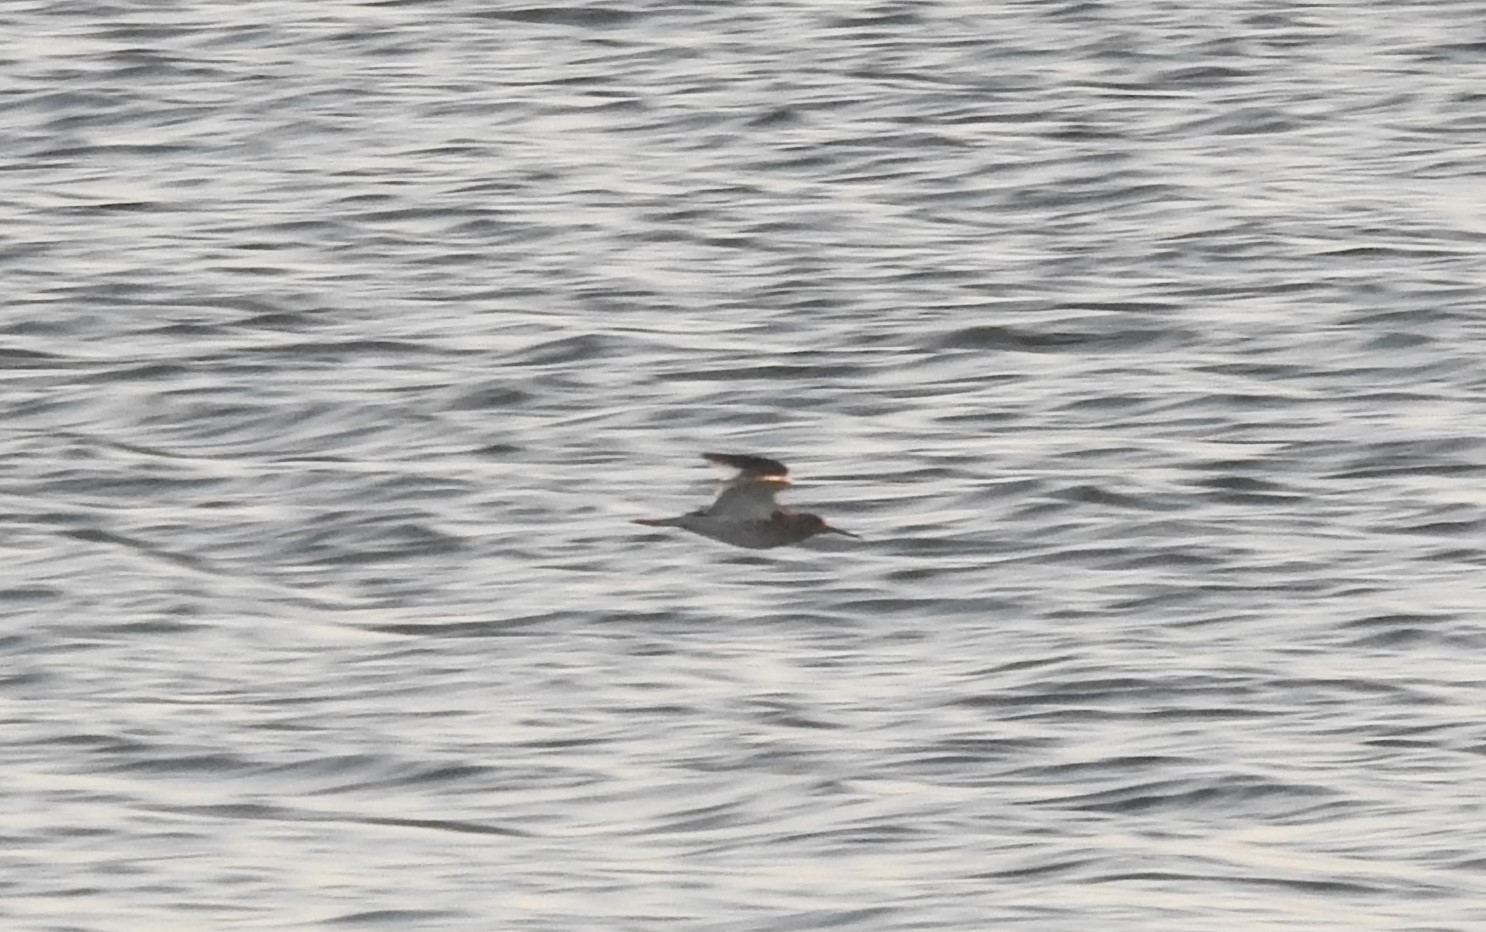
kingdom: Animalia
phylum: Chordata
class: Aves
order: Charadriiformes
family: Scolopacidae
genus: Tringa
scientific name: Tringa totanus
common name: Common redshank
